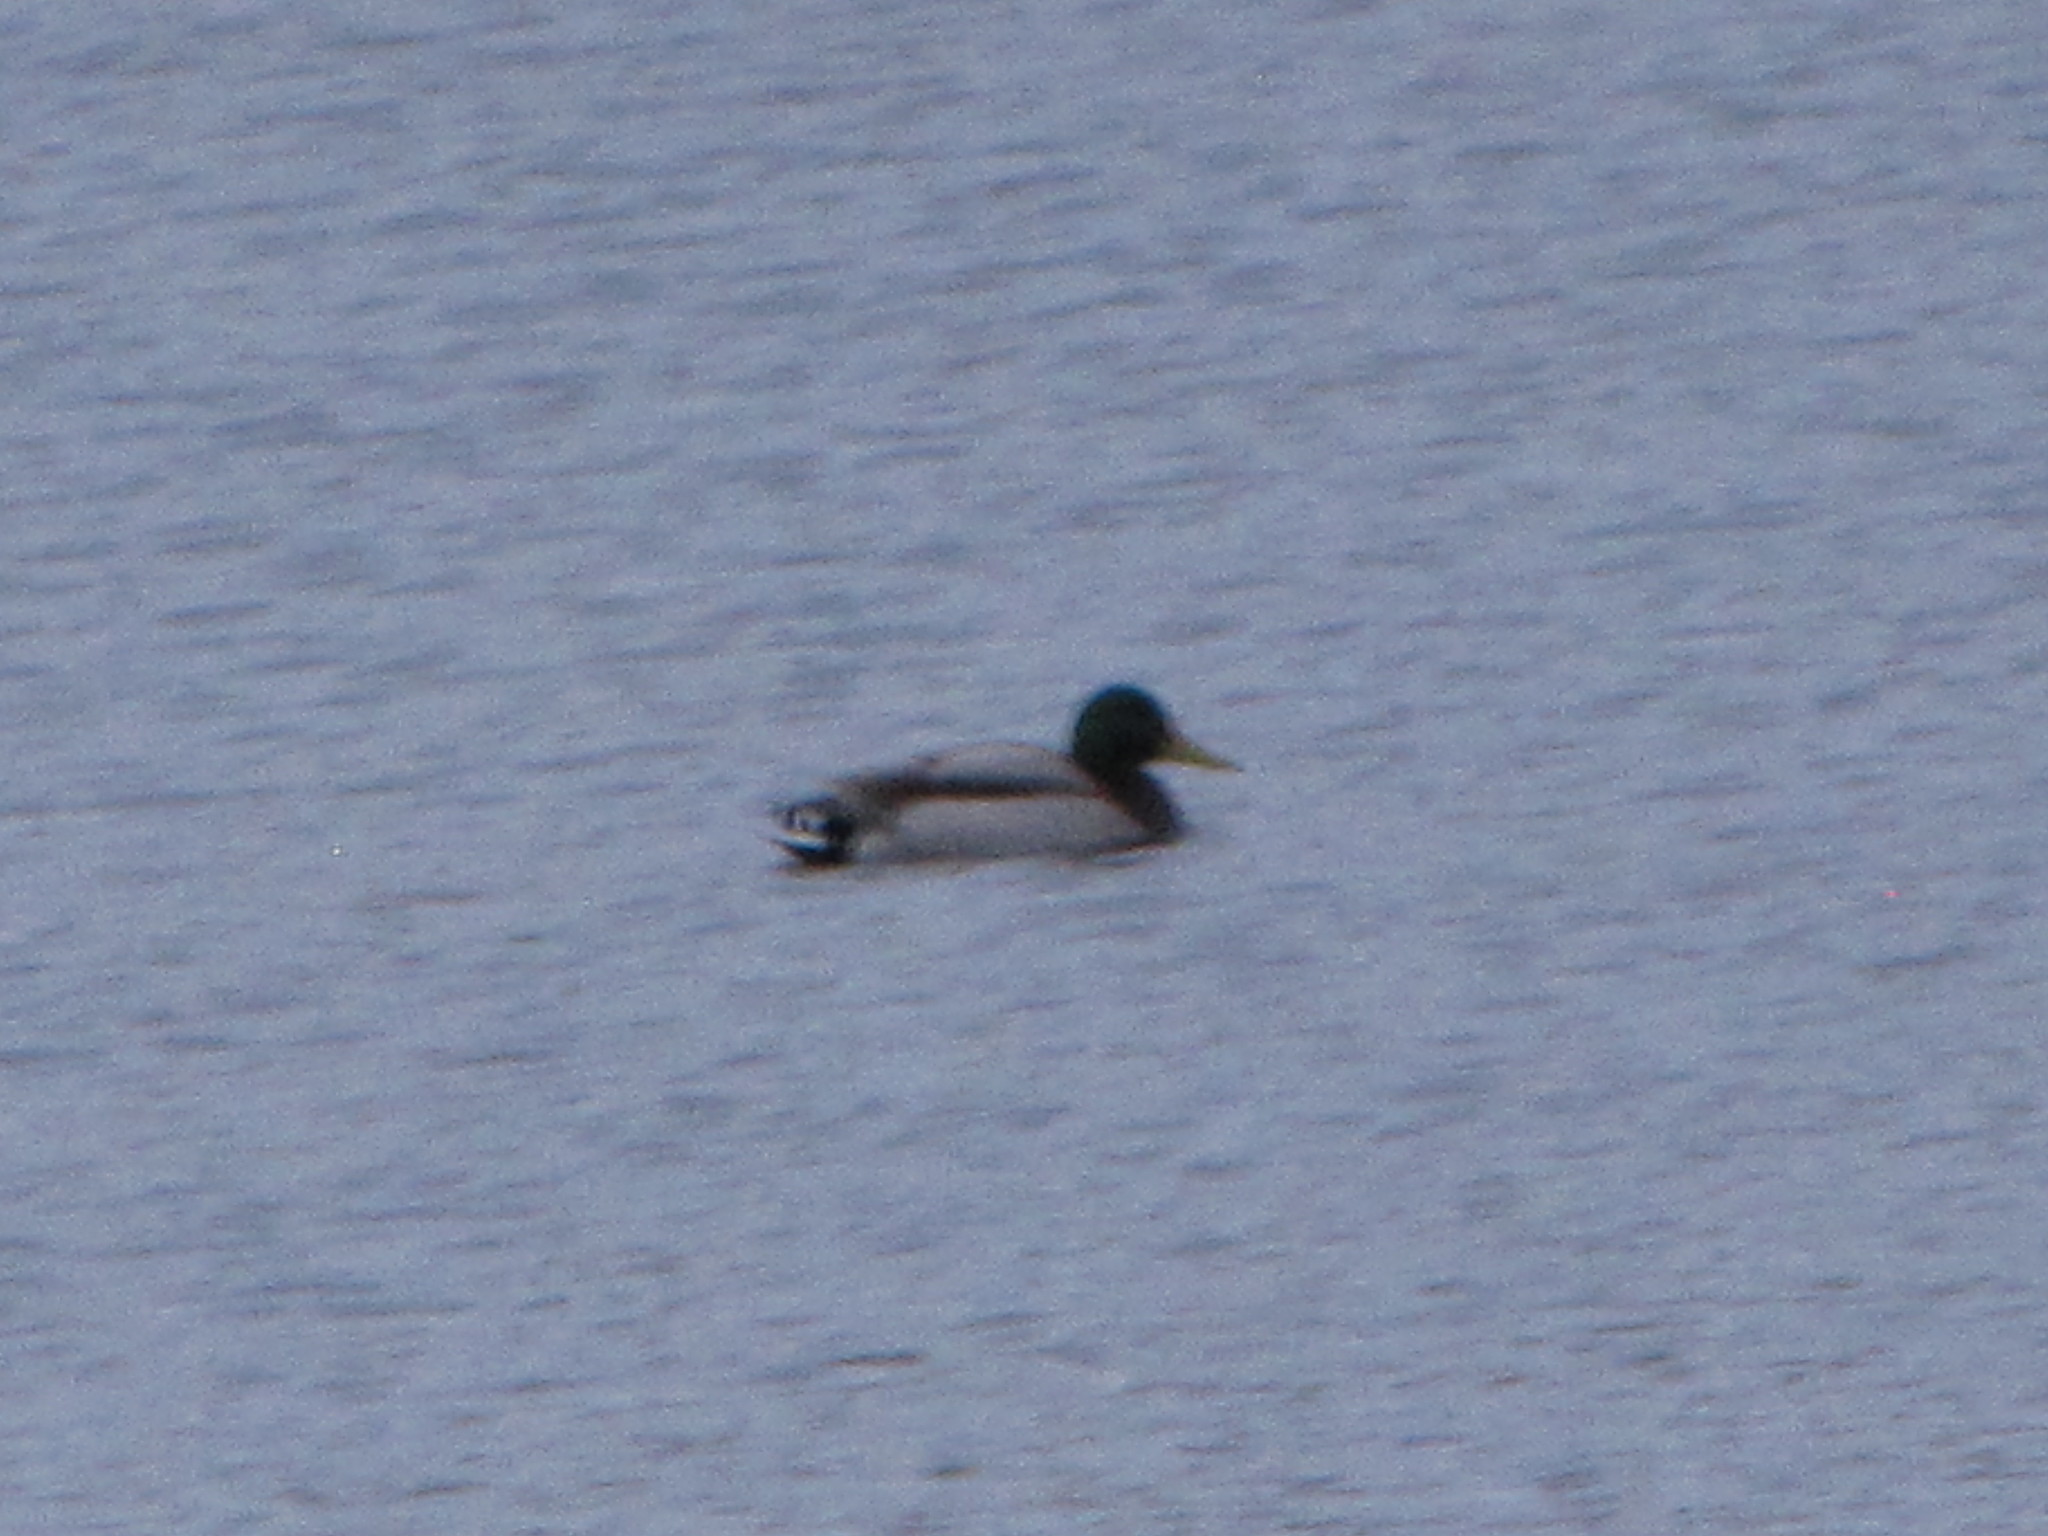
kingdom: Animalia
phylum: Chordata
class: Aves
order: Anseriformes
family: Anatidae
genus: Anas
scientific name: Anas platyrhynchos
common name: Mallard
